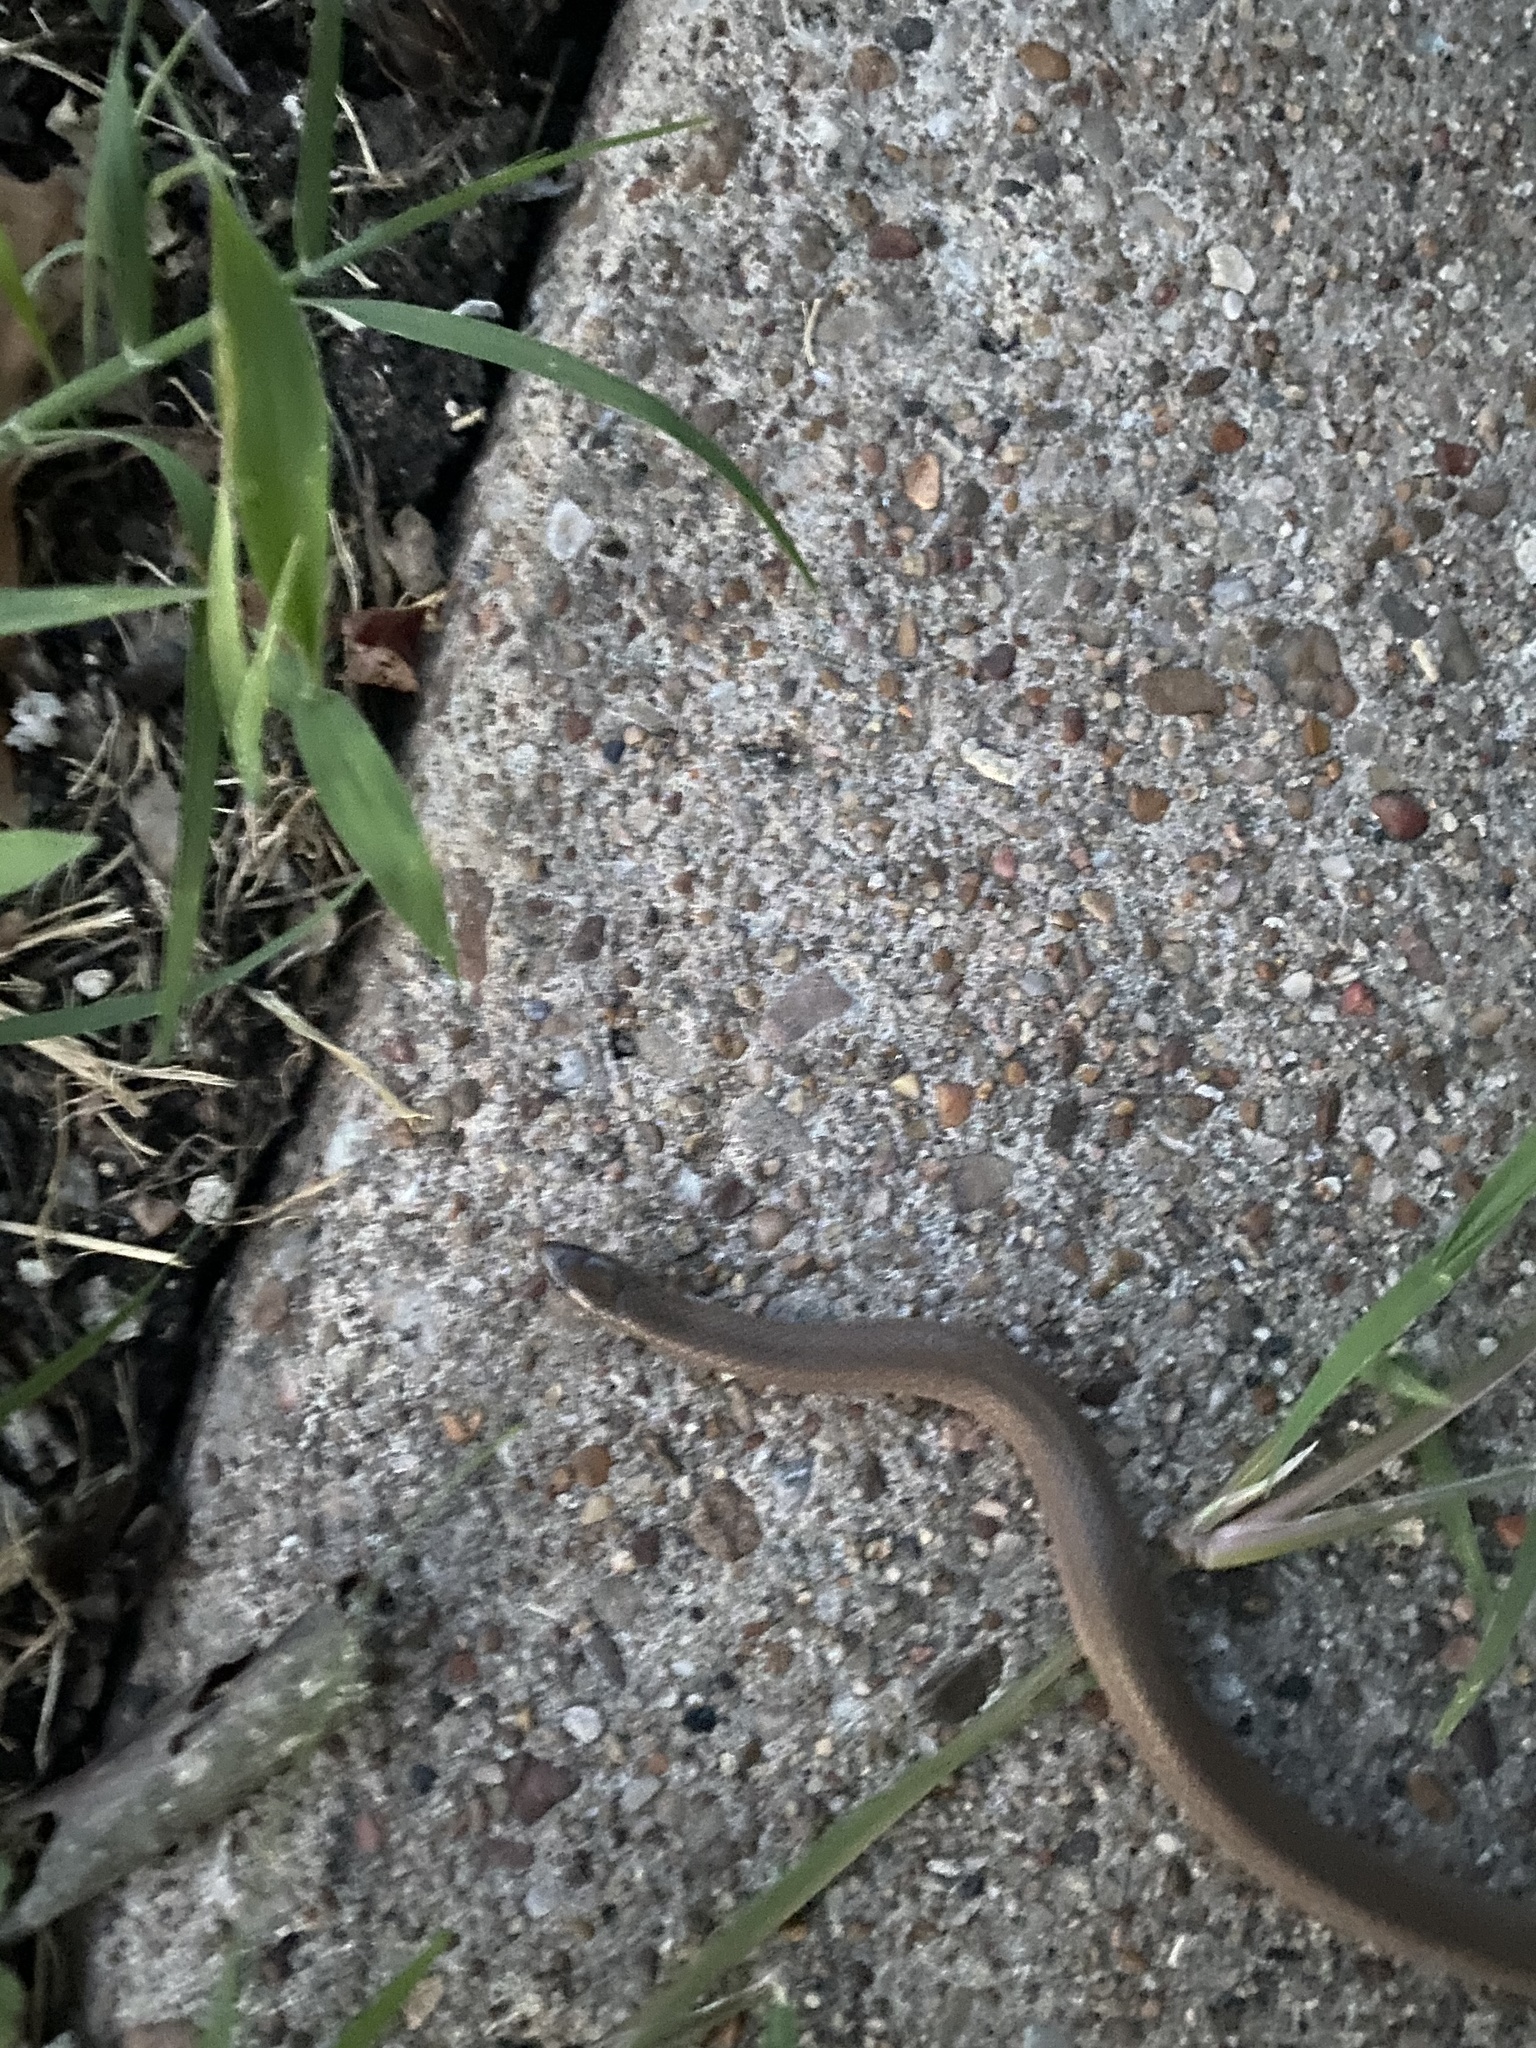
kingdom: Animalia
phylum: Chordata
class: Squamata
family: Colubridae
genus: Haldea
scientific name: Haldea striatula
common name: Rough earth snake
